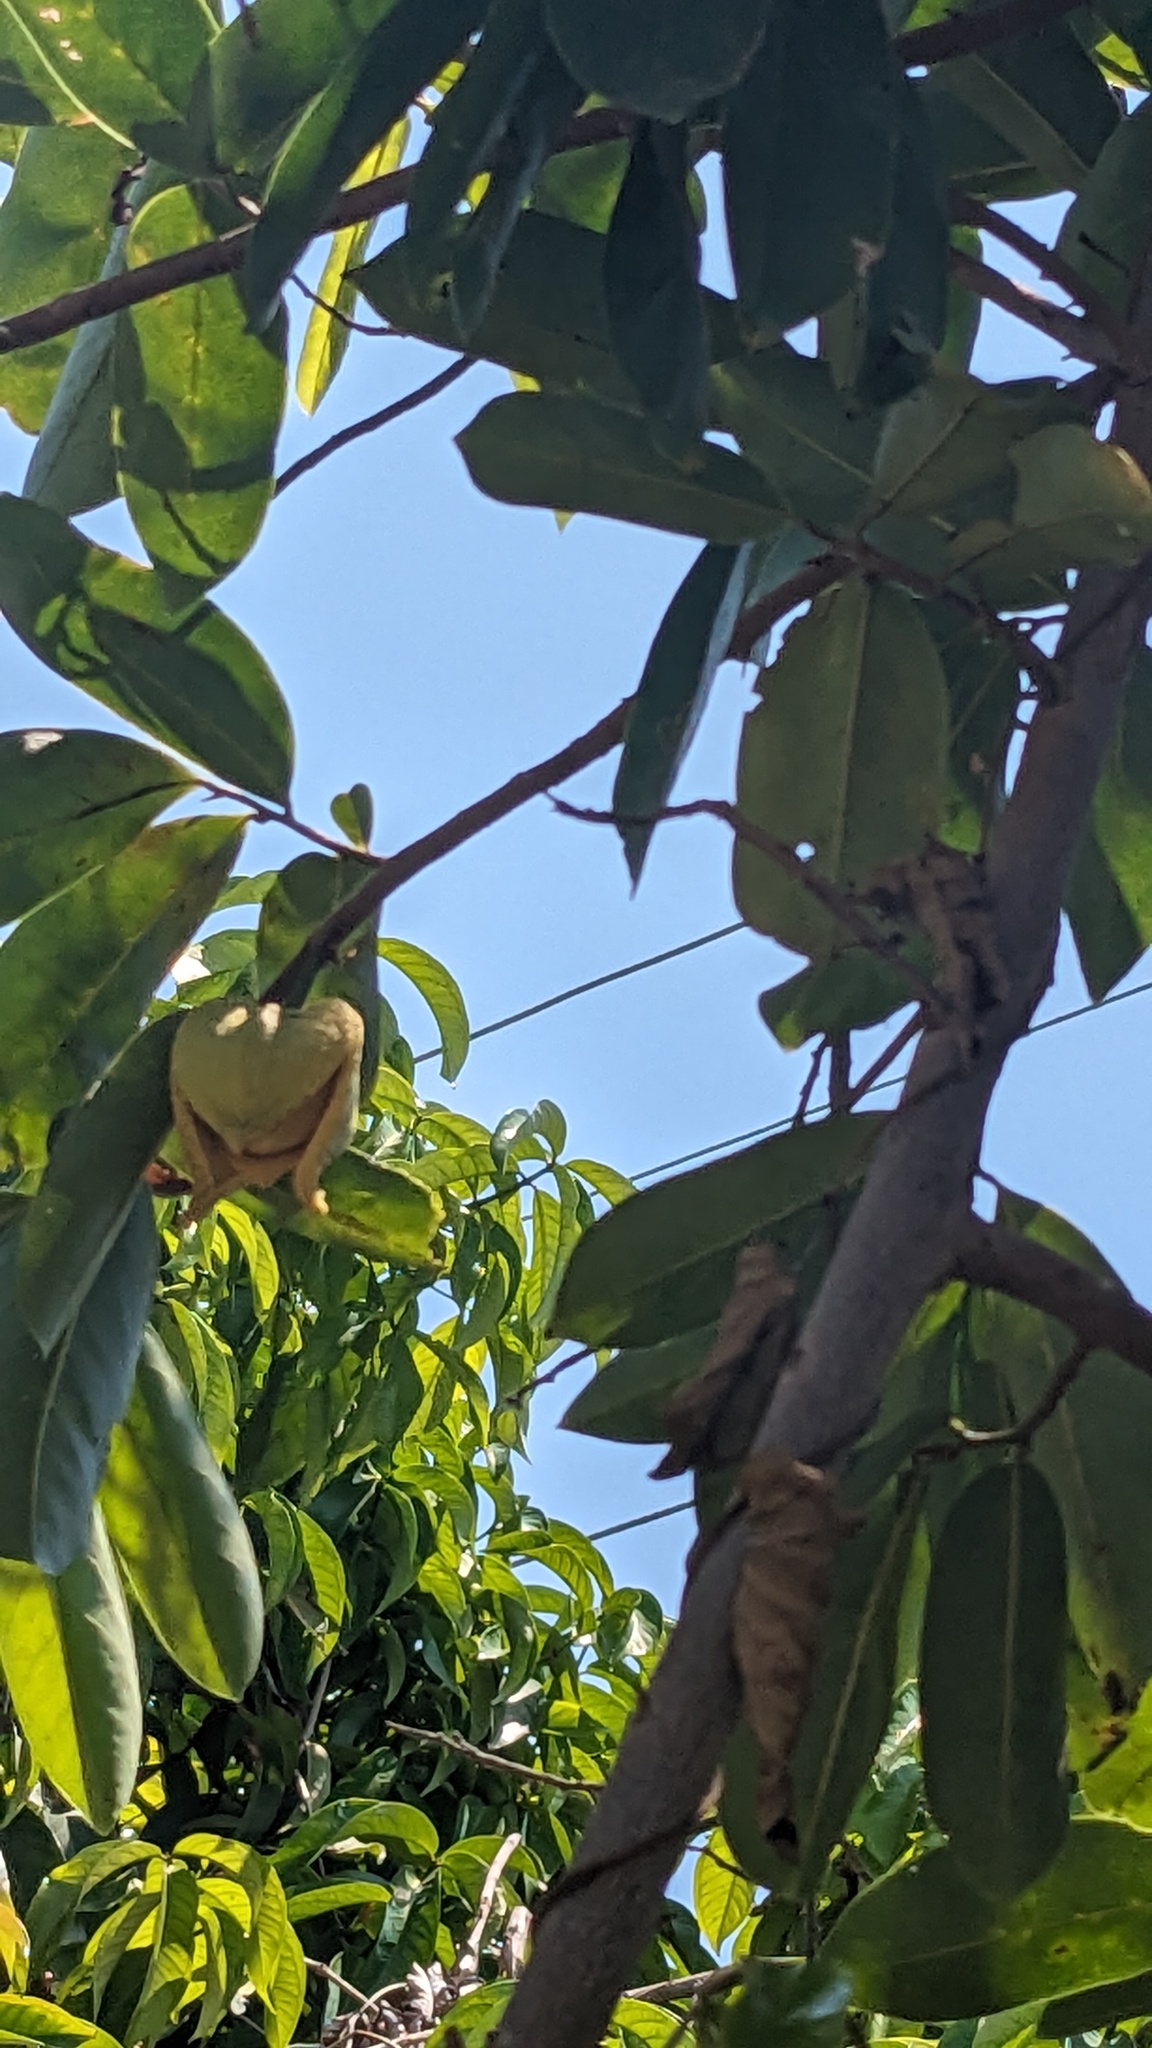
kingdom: Plantae
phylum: Tracheophyta
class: Magnoliopsida
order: Magnoliales
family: Annonaceae
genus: Annona
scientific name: Annona muricata
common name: Soursop
